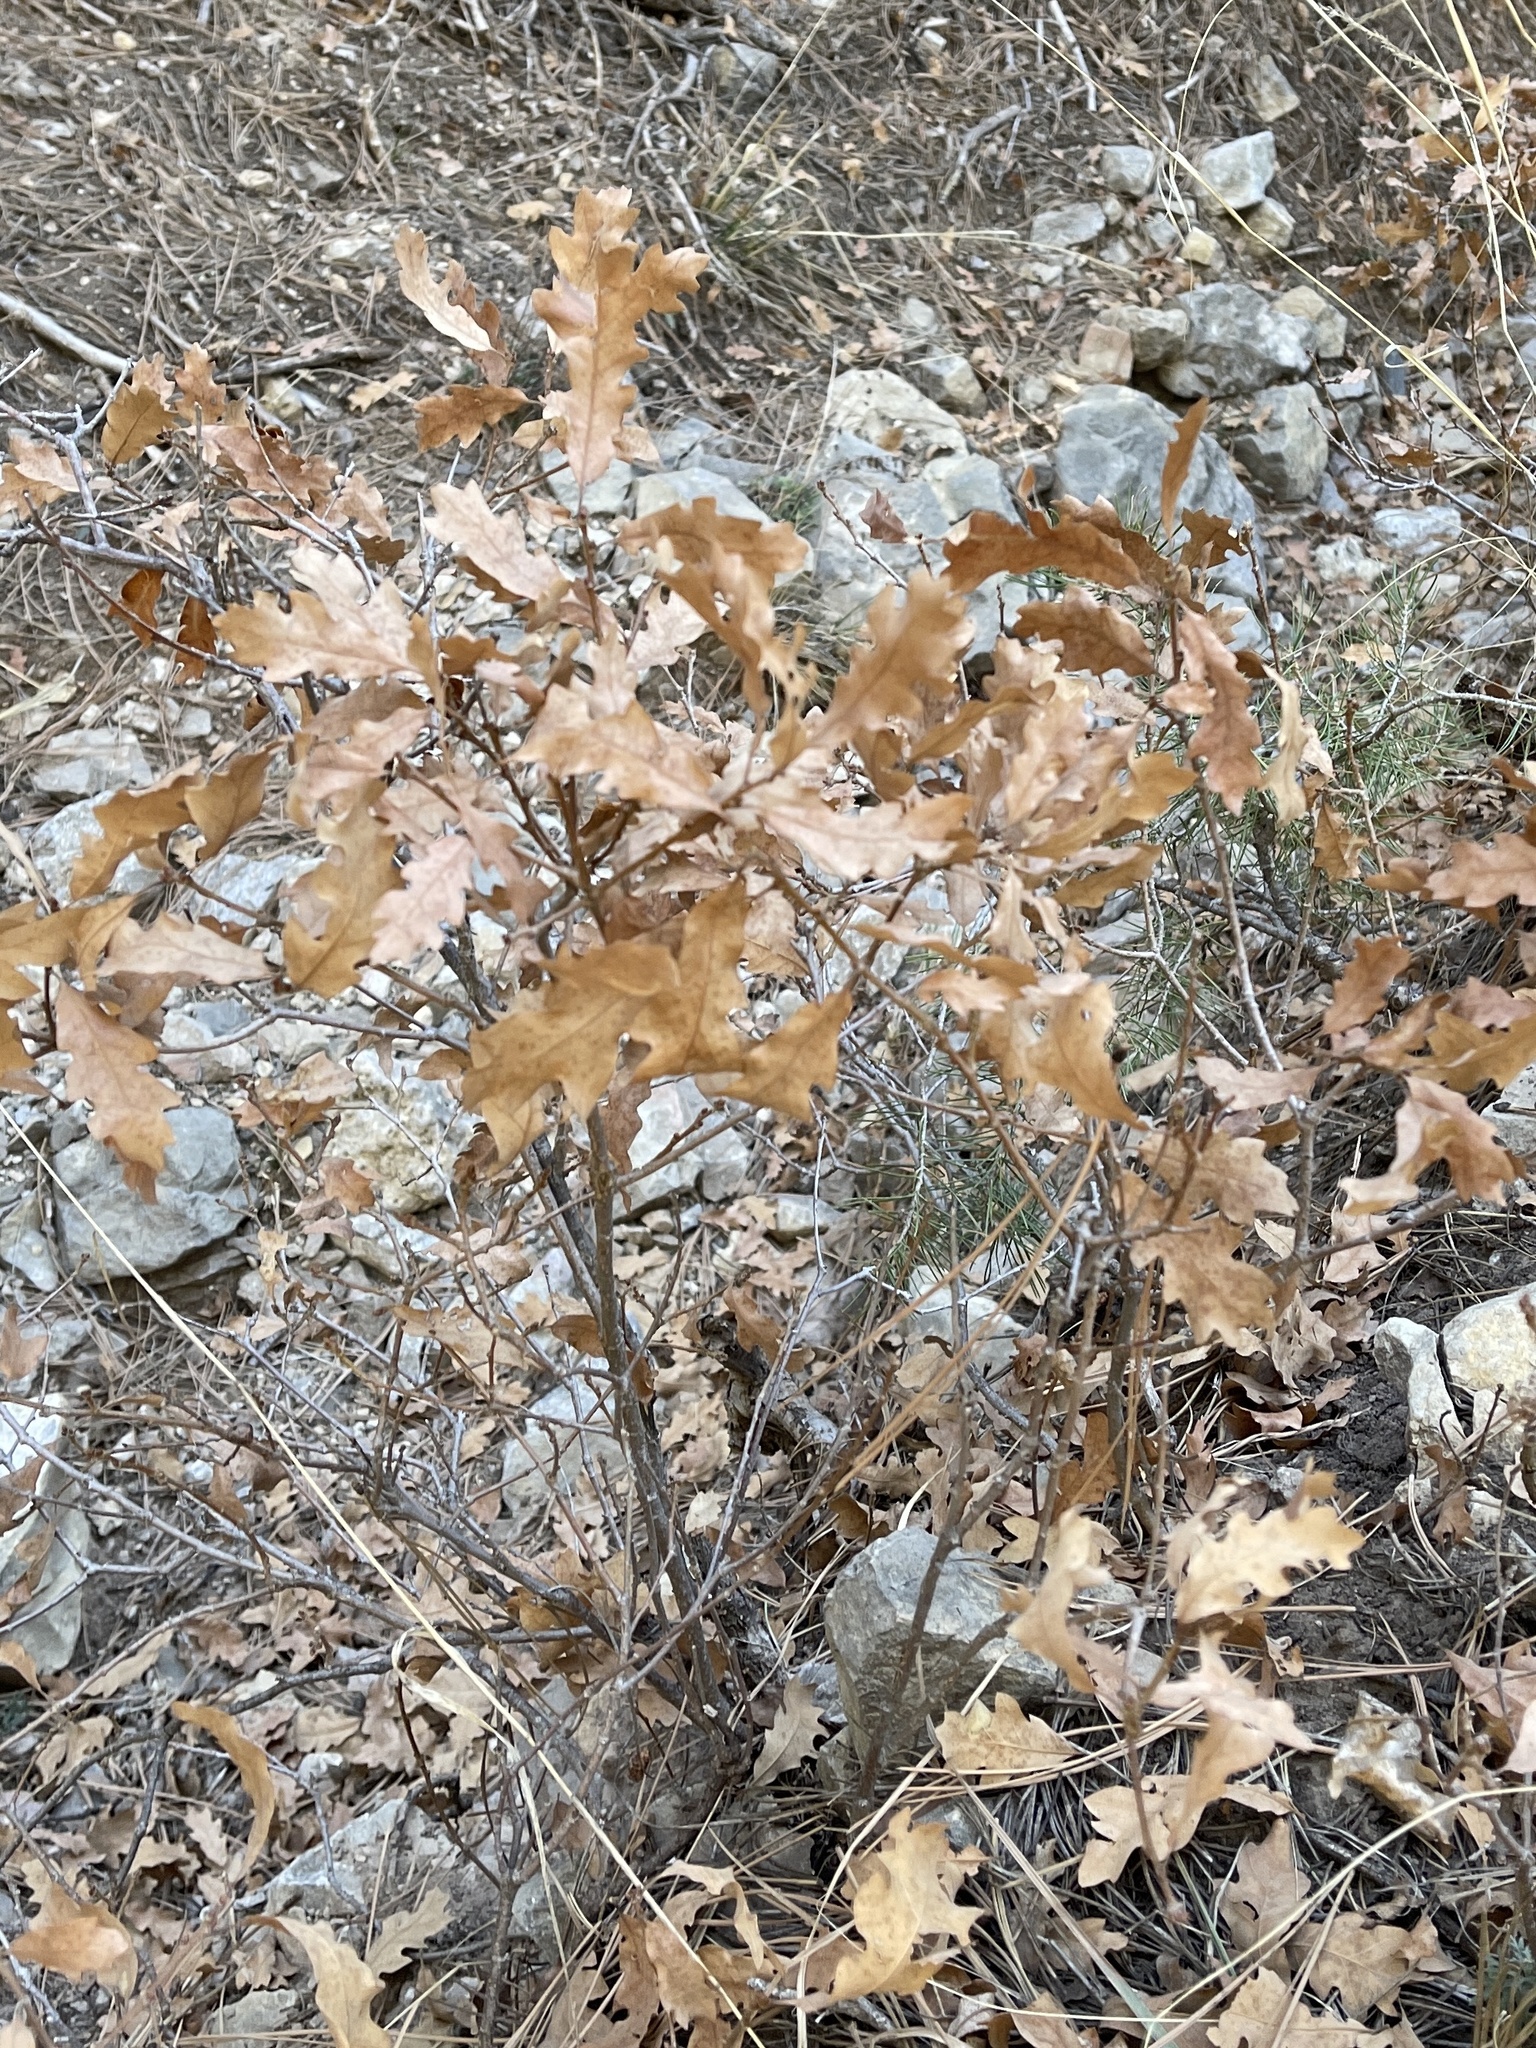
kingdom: Plantae
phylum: Tracheophyta
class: Magnoliopsida
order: Fagales
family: Fagaceae
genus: Quercus
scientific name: Quercus gambelii
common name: Gambel oak
